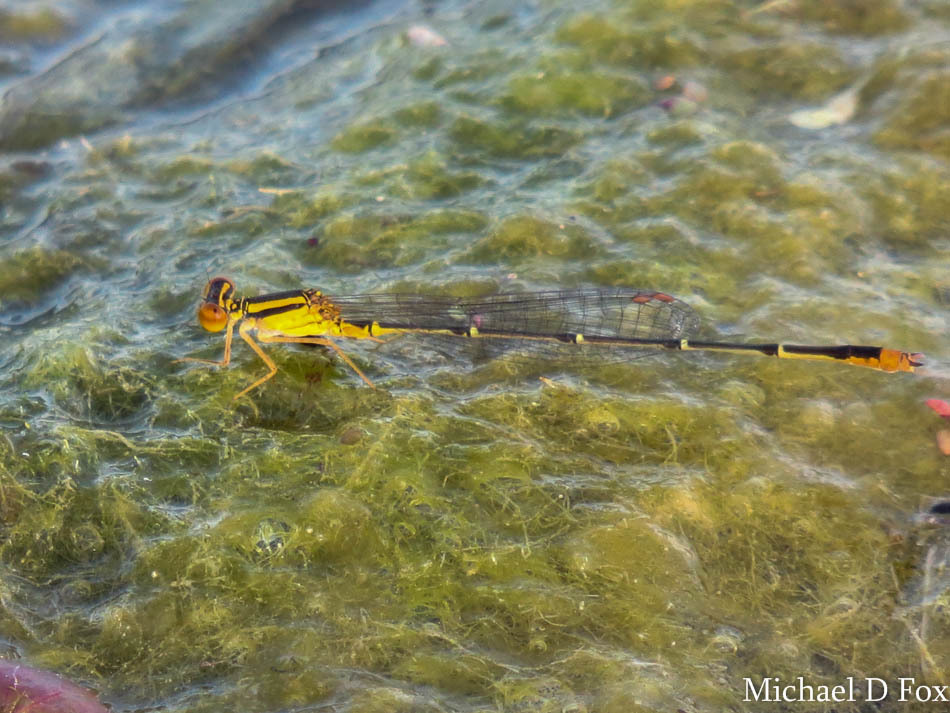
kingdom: Animalia
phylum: Arthropoda
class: Insecta
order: Odonata
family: Coenagrionidae
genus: Enallagma
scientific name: Enallagma signatum
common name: Orange bluet
